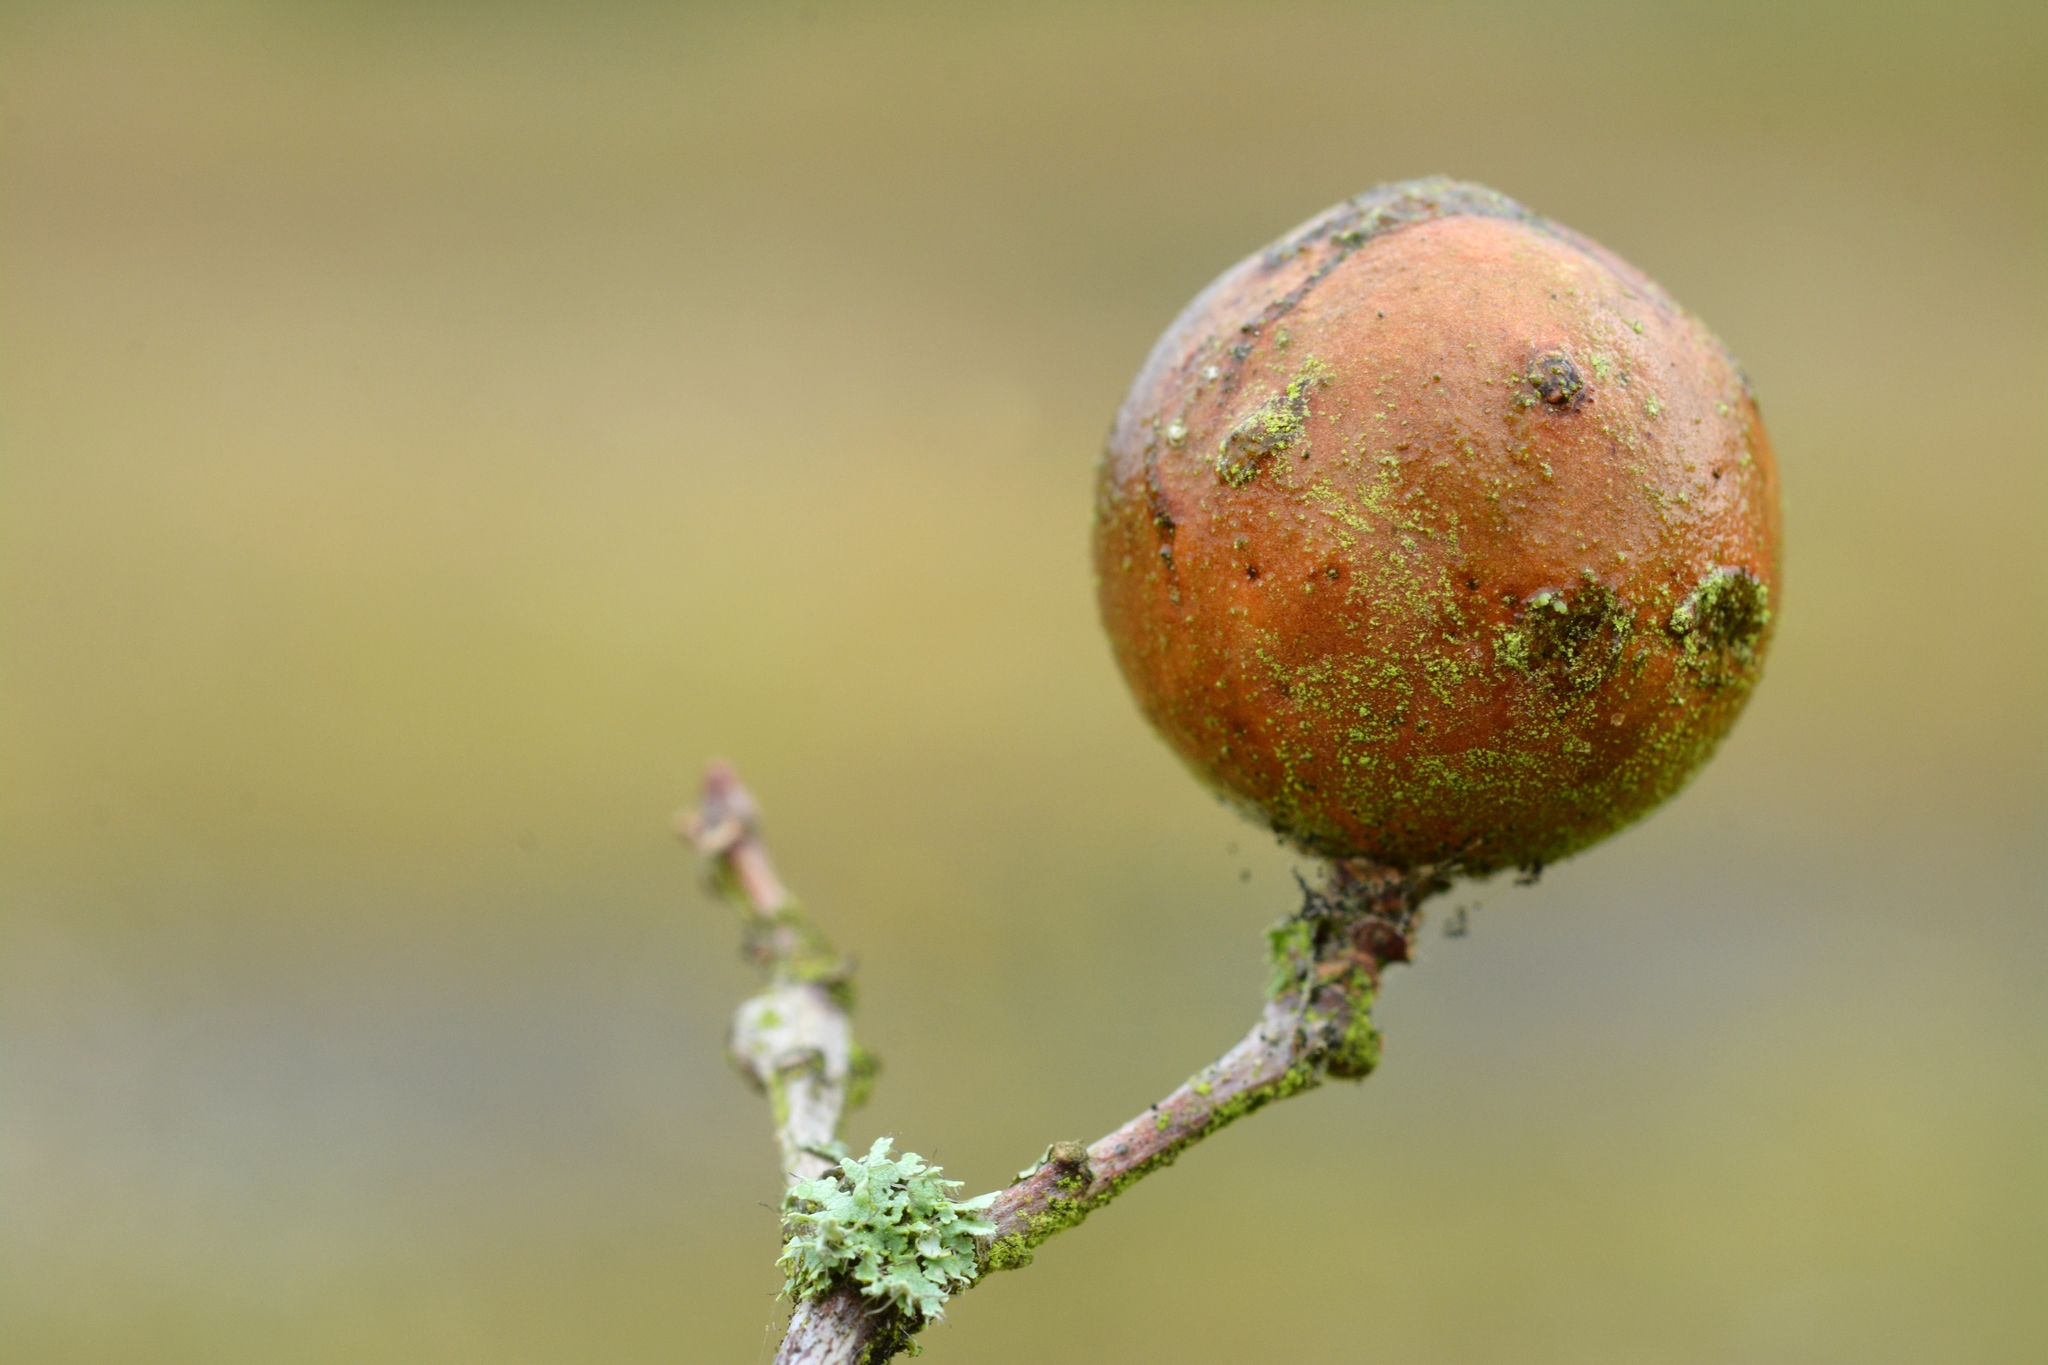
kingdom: Animalia
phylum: Arthropoda
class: Insecta
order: Hymenoptera
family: Cynipidae
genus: Andricus
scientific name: Andricus kollari
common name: Marble gall
